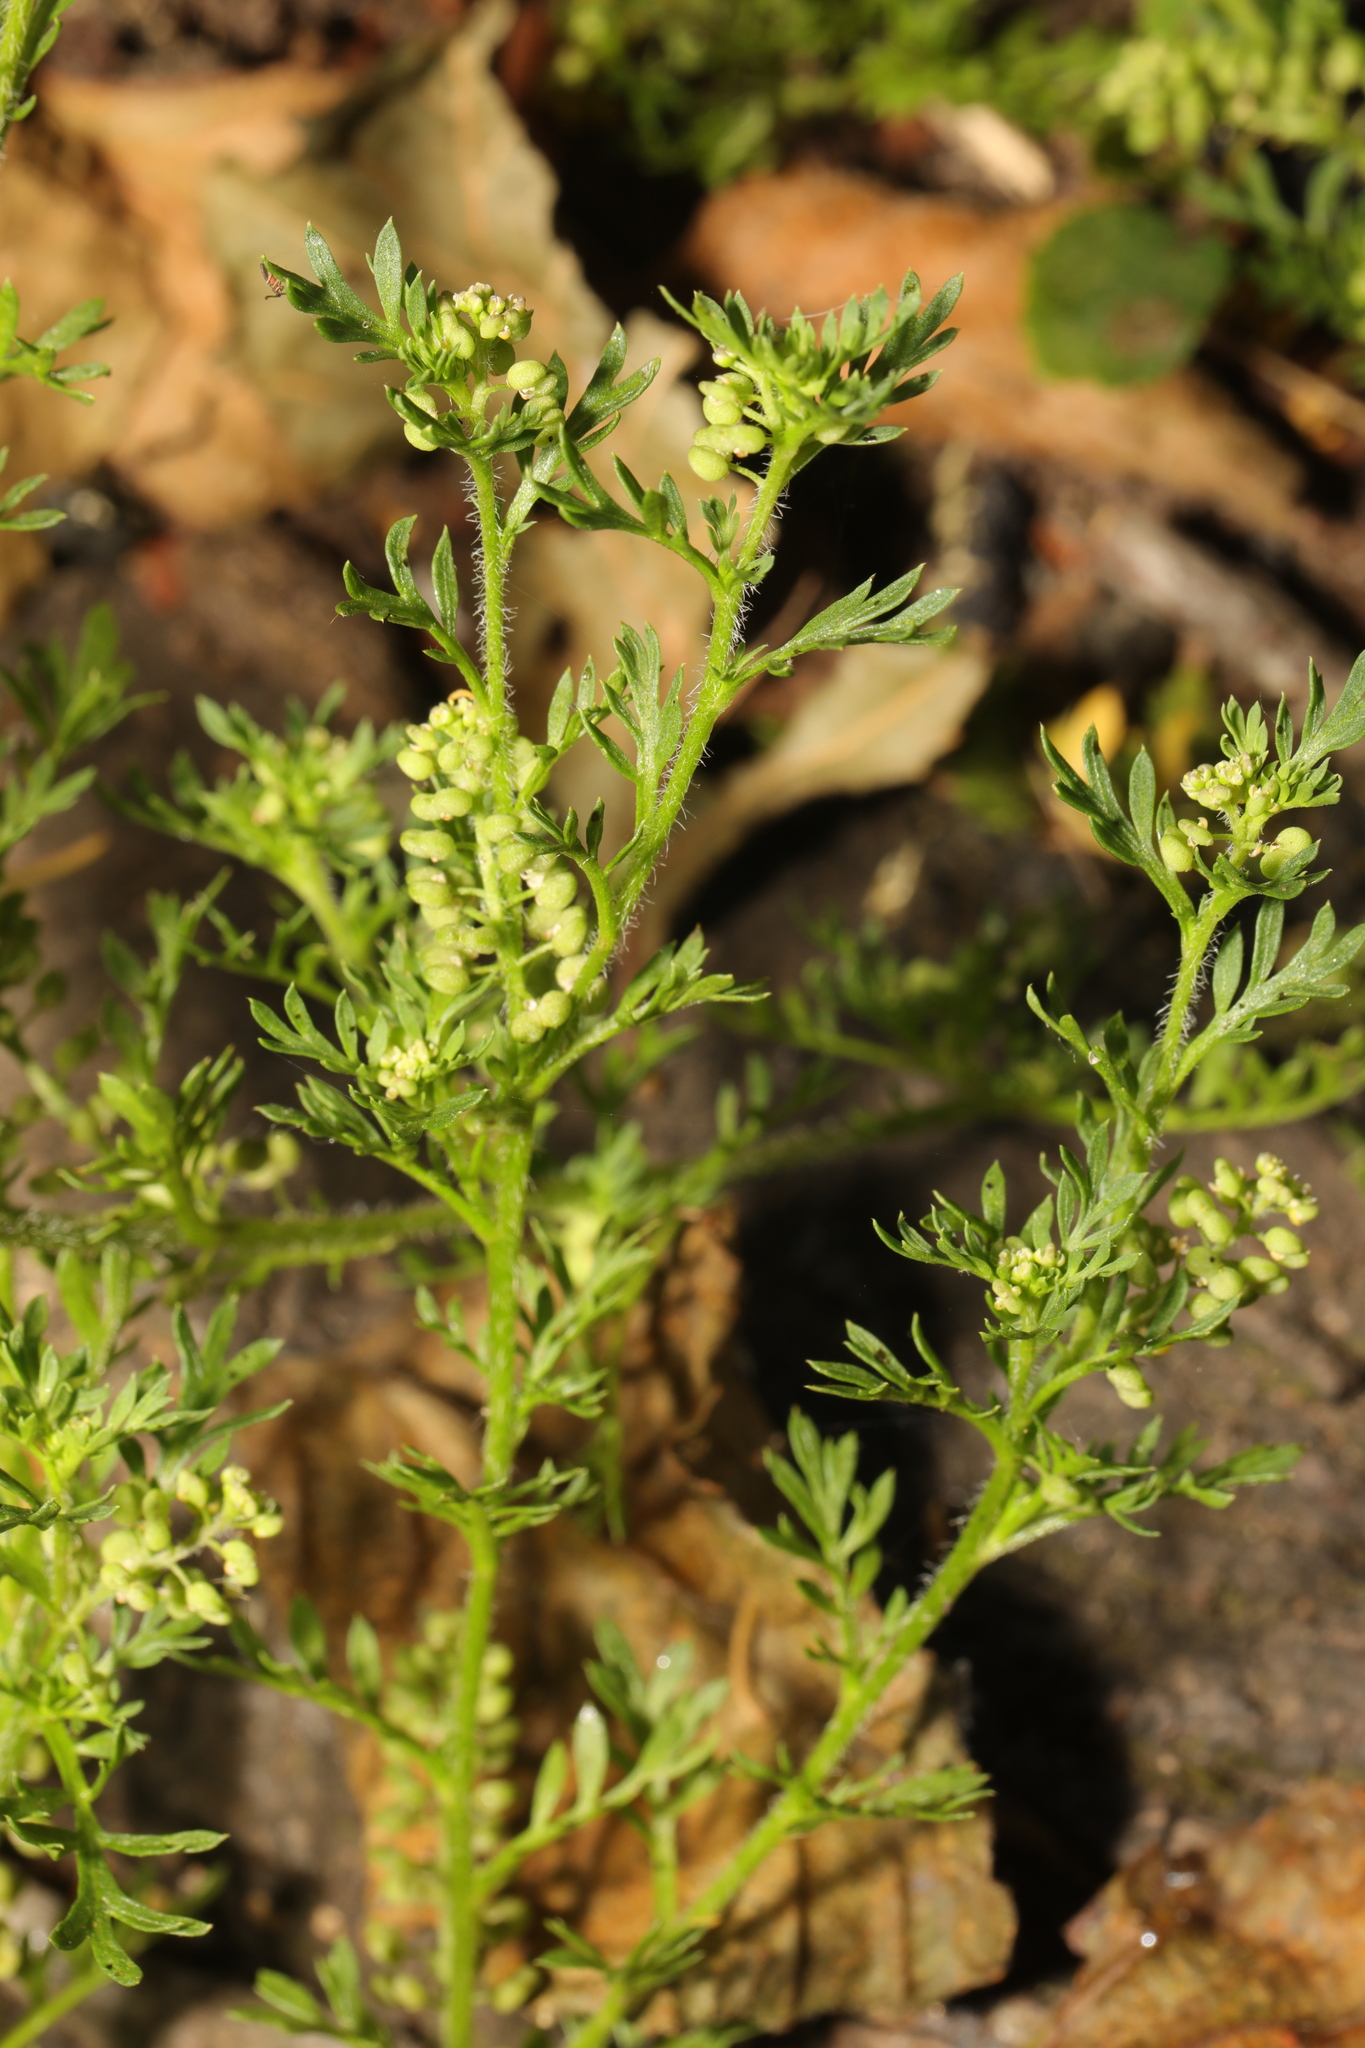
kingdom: Plantae
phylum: Tracheophyta
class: Magnoliopsida
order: Brassicales
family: Brassicaceae
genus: Lepidium
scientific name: Lepidium didymum
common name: Lesser swinecress
